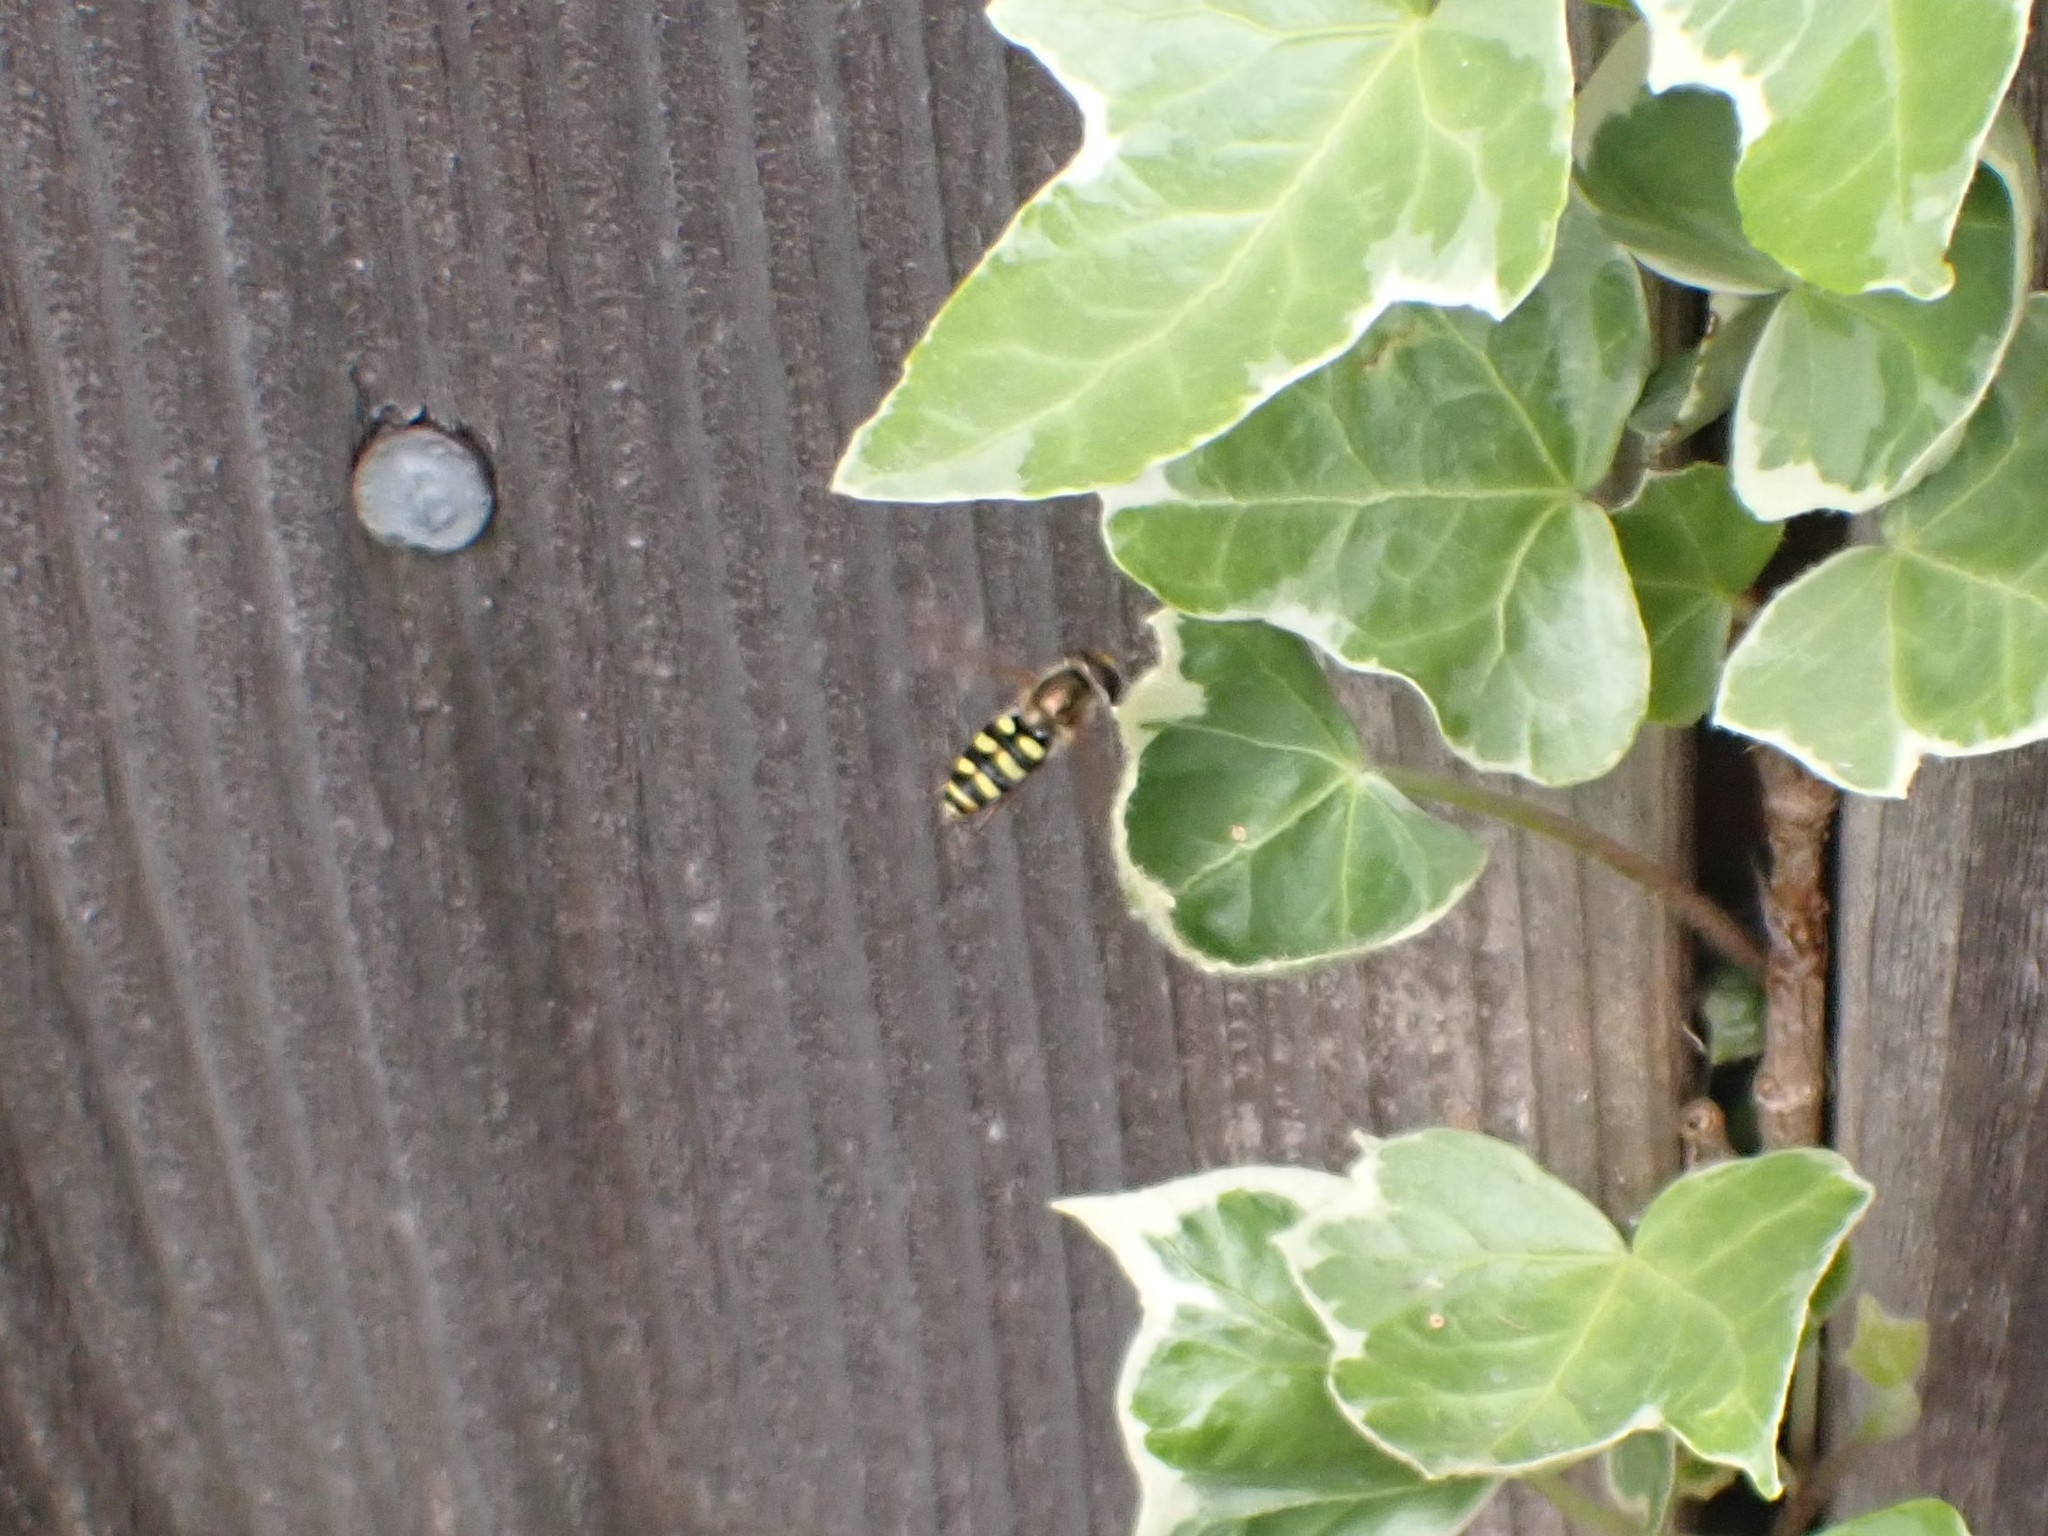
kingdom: Animalia
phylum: Arthropoda
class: Insecta
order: Diptera
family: Syrphidae
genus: Eupeodes
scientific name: Eupeodes fumipennis
